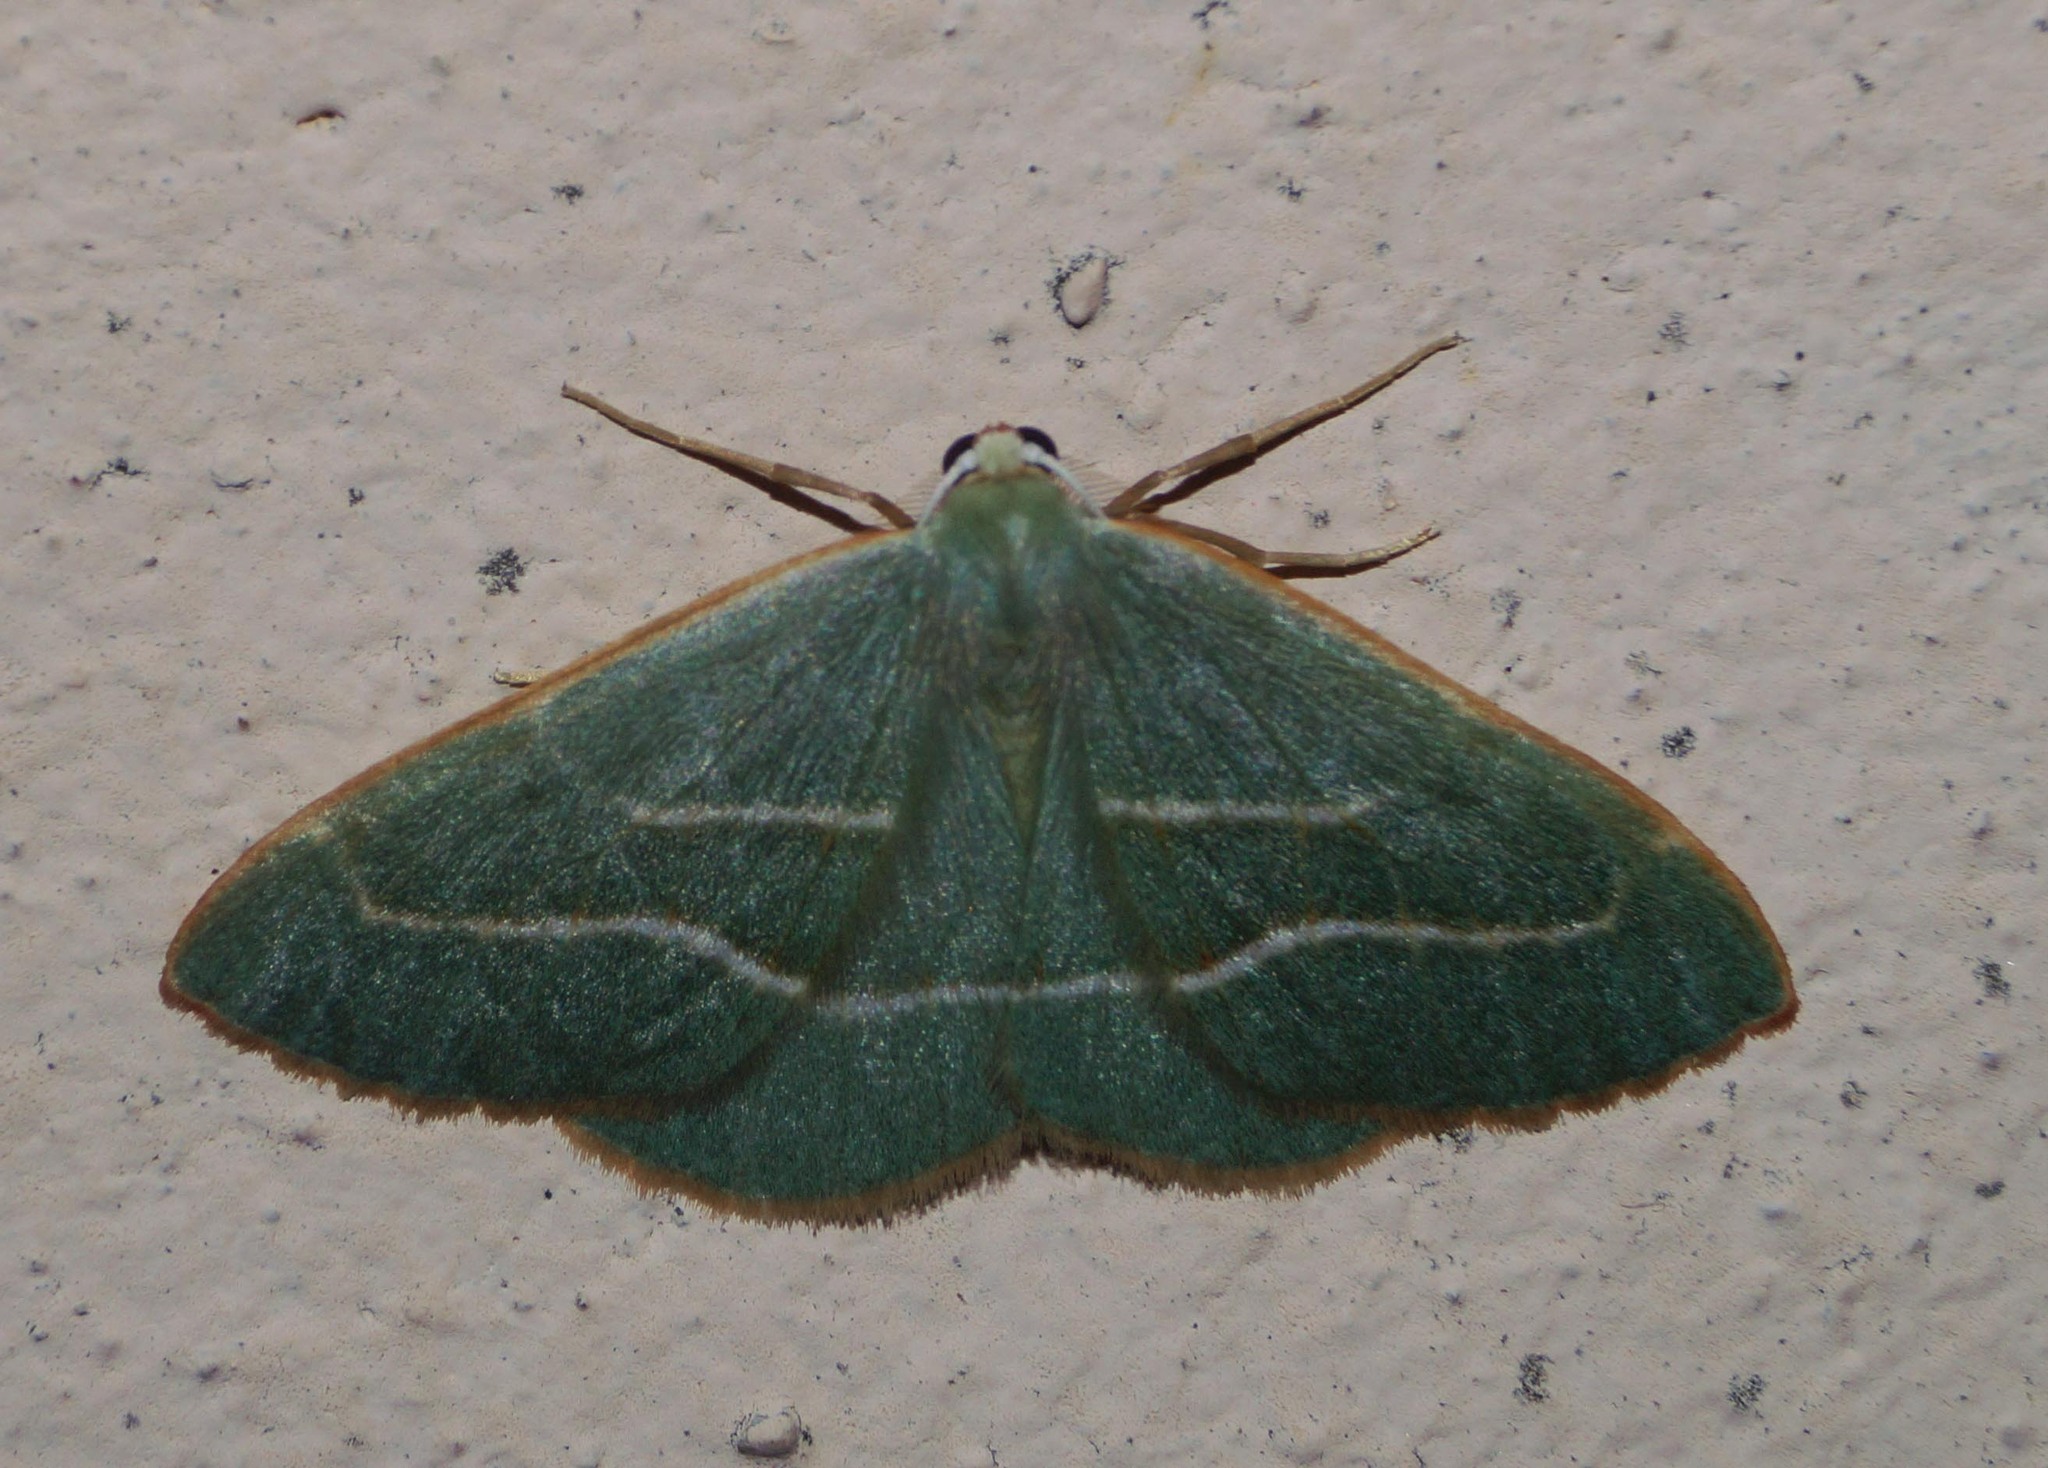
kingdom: Animalia
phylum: Arthropoda
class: Insecta
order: Lepidoptera
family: Geometridae
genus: Hylaea
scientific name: Hylaea fasciaria
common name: Barred red
